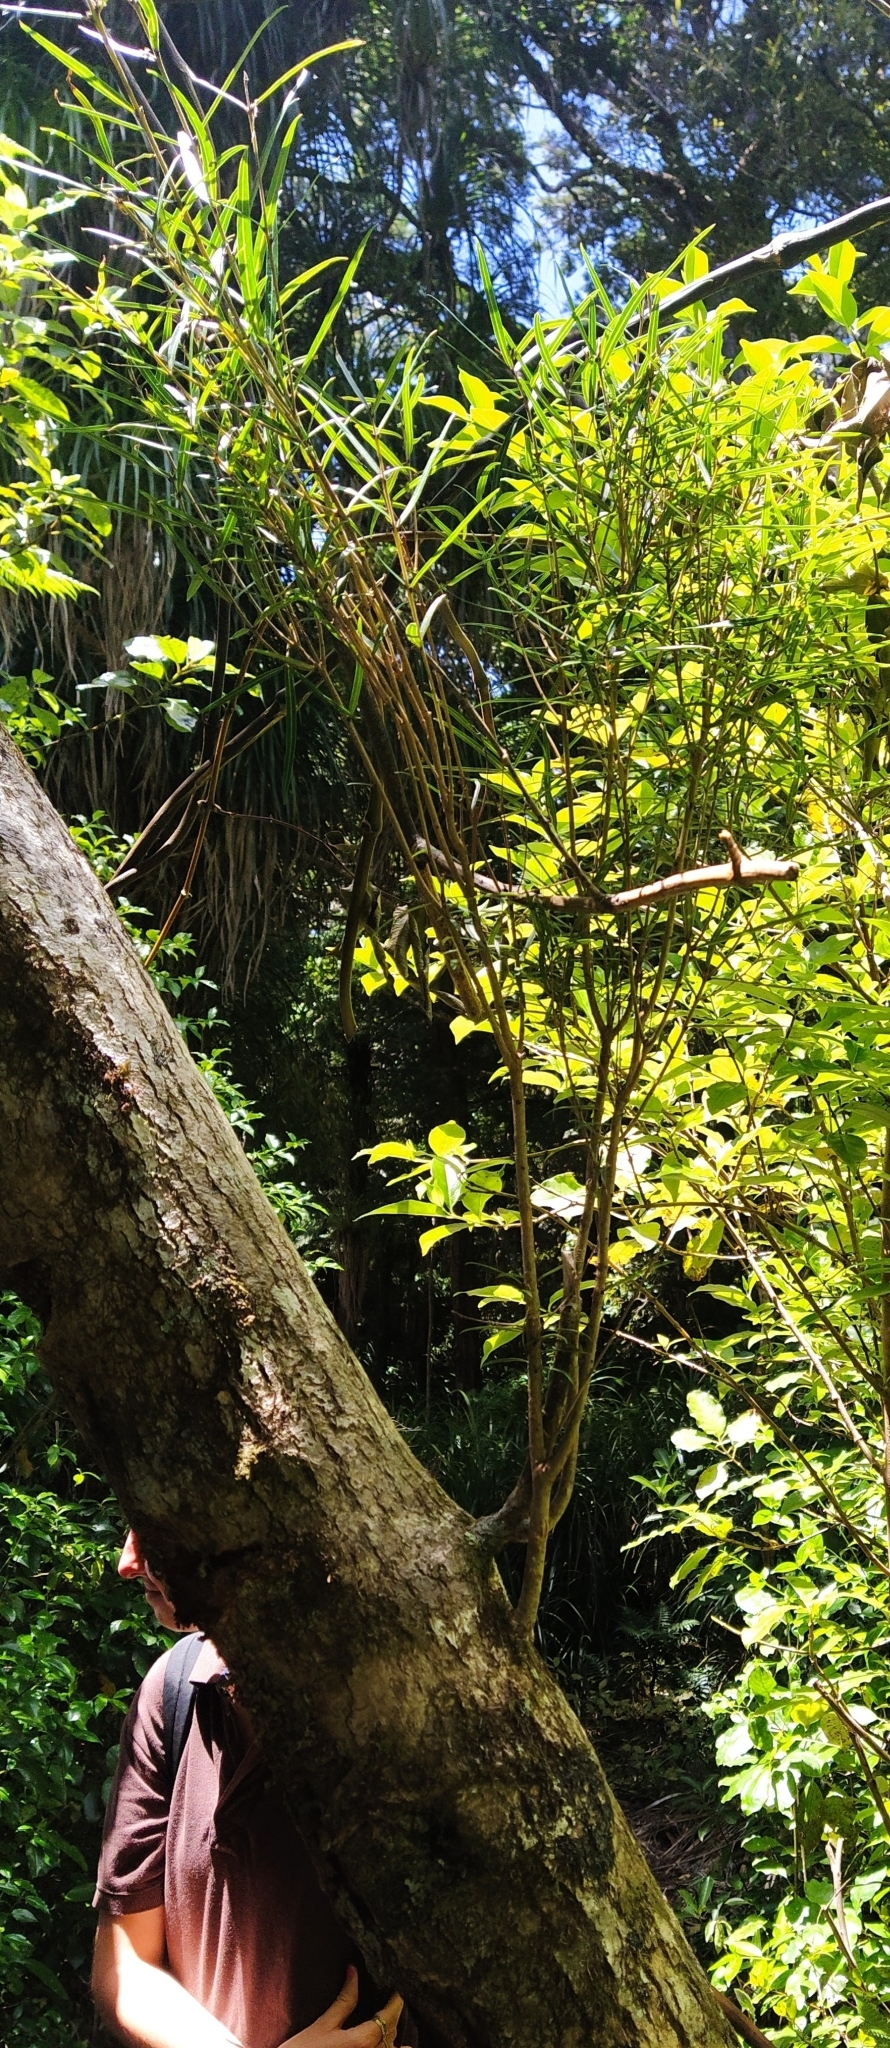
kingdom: Plantae
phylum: Tracheophyta
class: Magnoliopsida
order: Lamiales
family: Oleaceae
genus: Nestegis
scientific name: Nestegis montana
